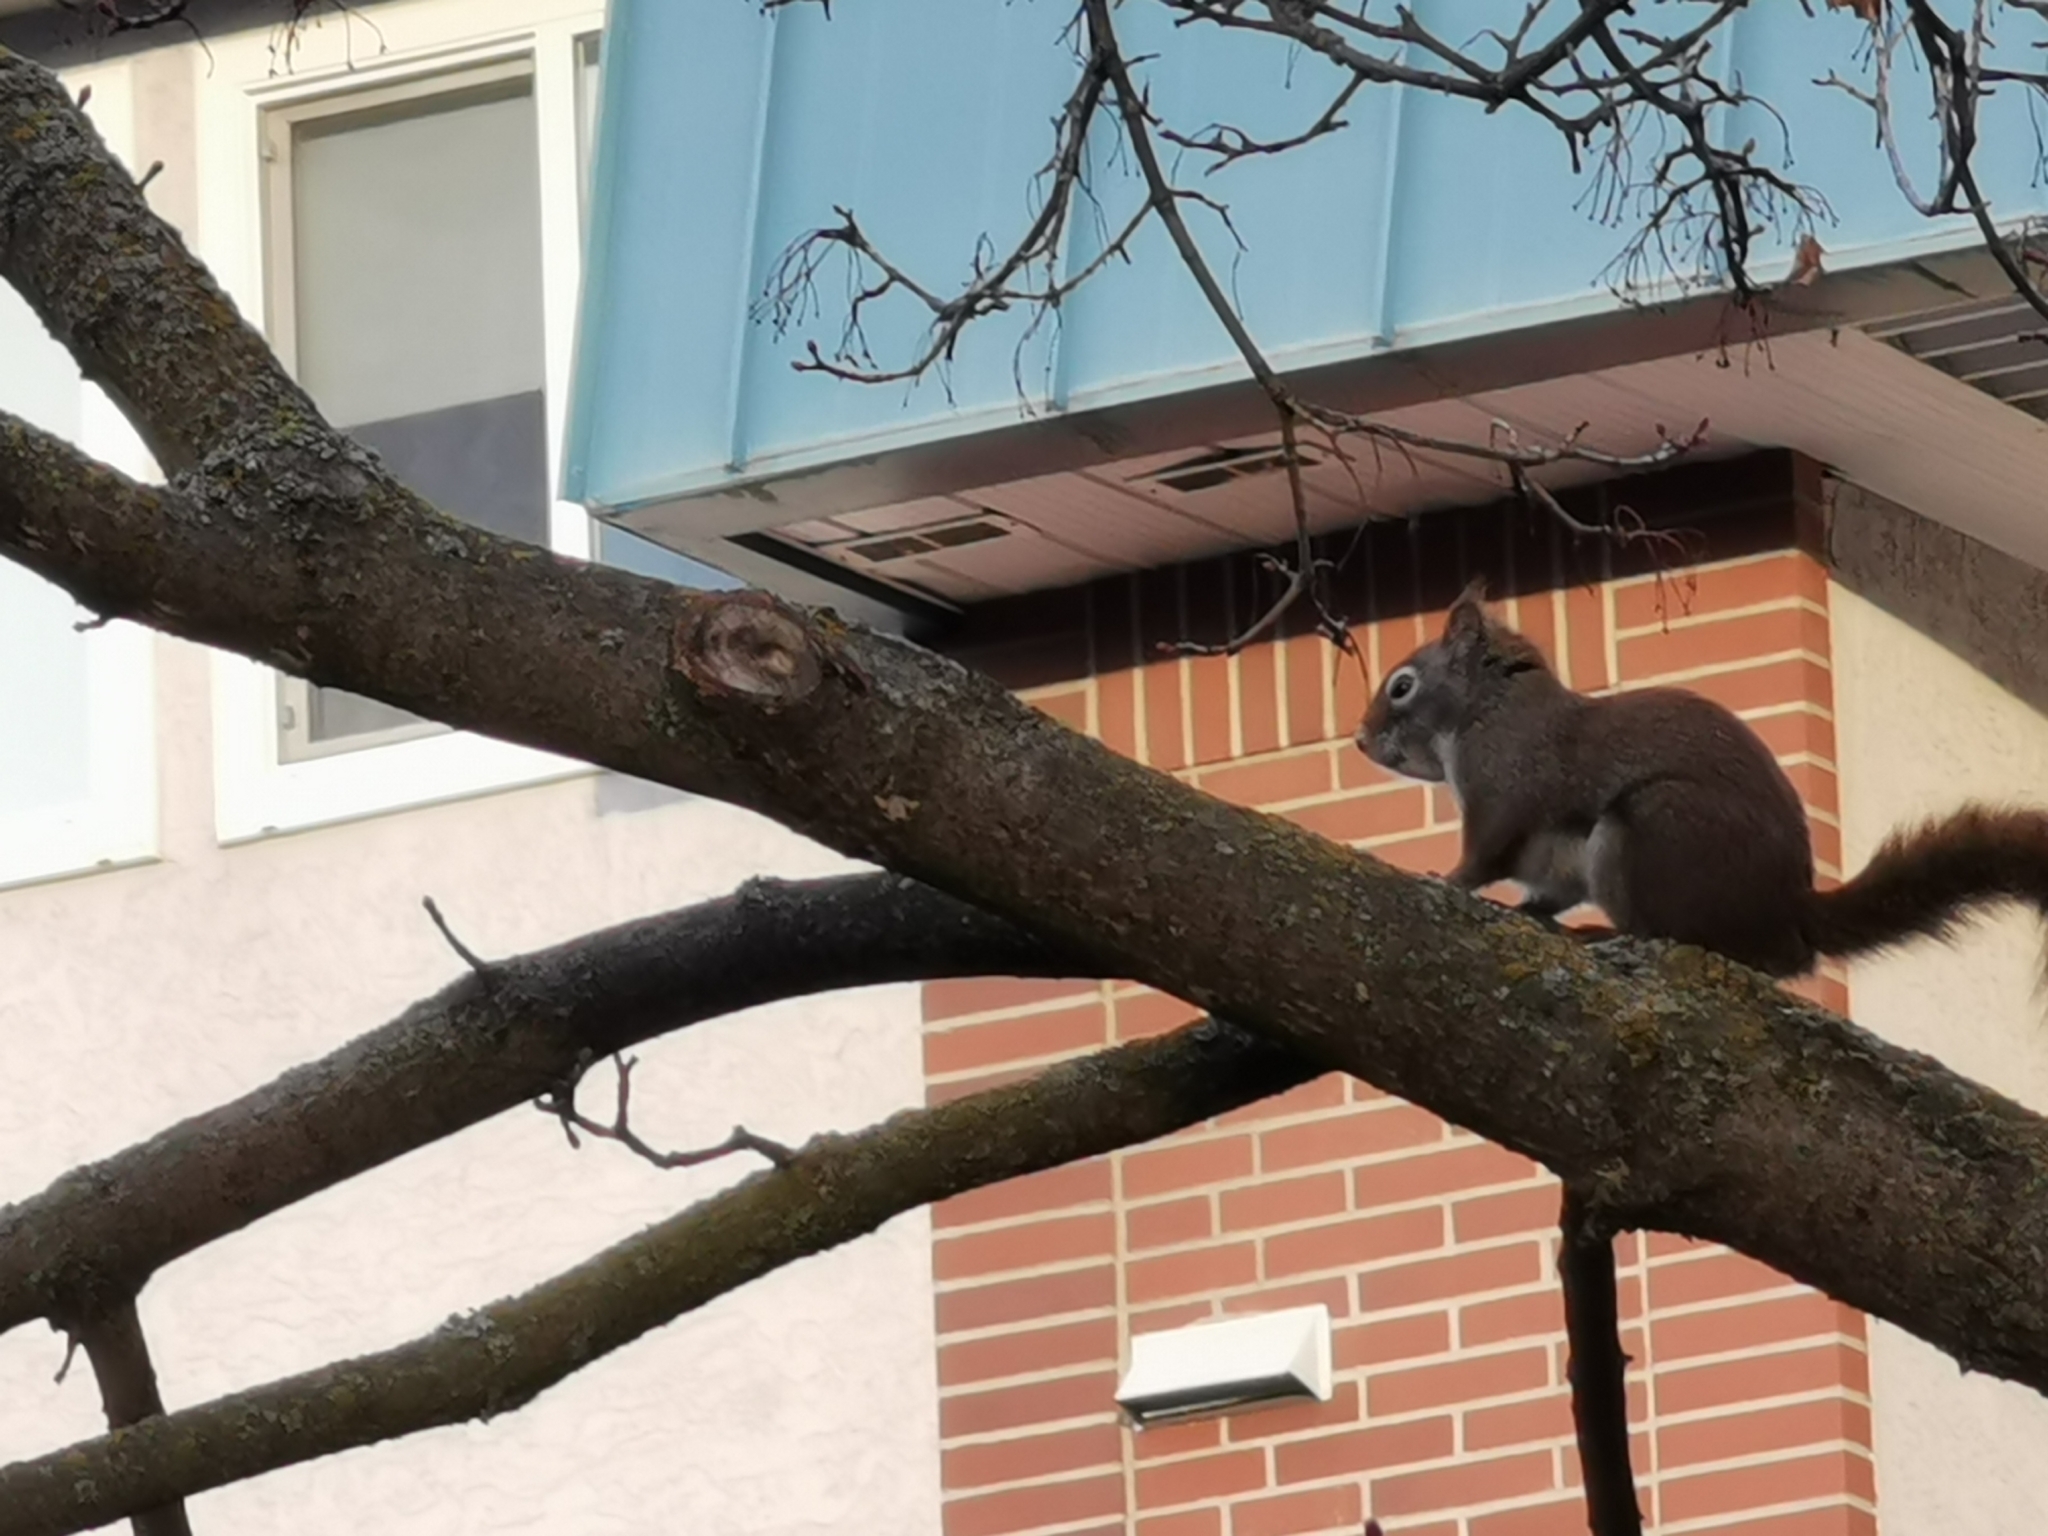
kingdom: Animalia
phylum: Chordata
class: Mammalia
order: Rodentia
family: Sciuridae
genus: Tamiasciurus
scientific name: Tamiasciurus hudsonicus
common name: Red squirrel
